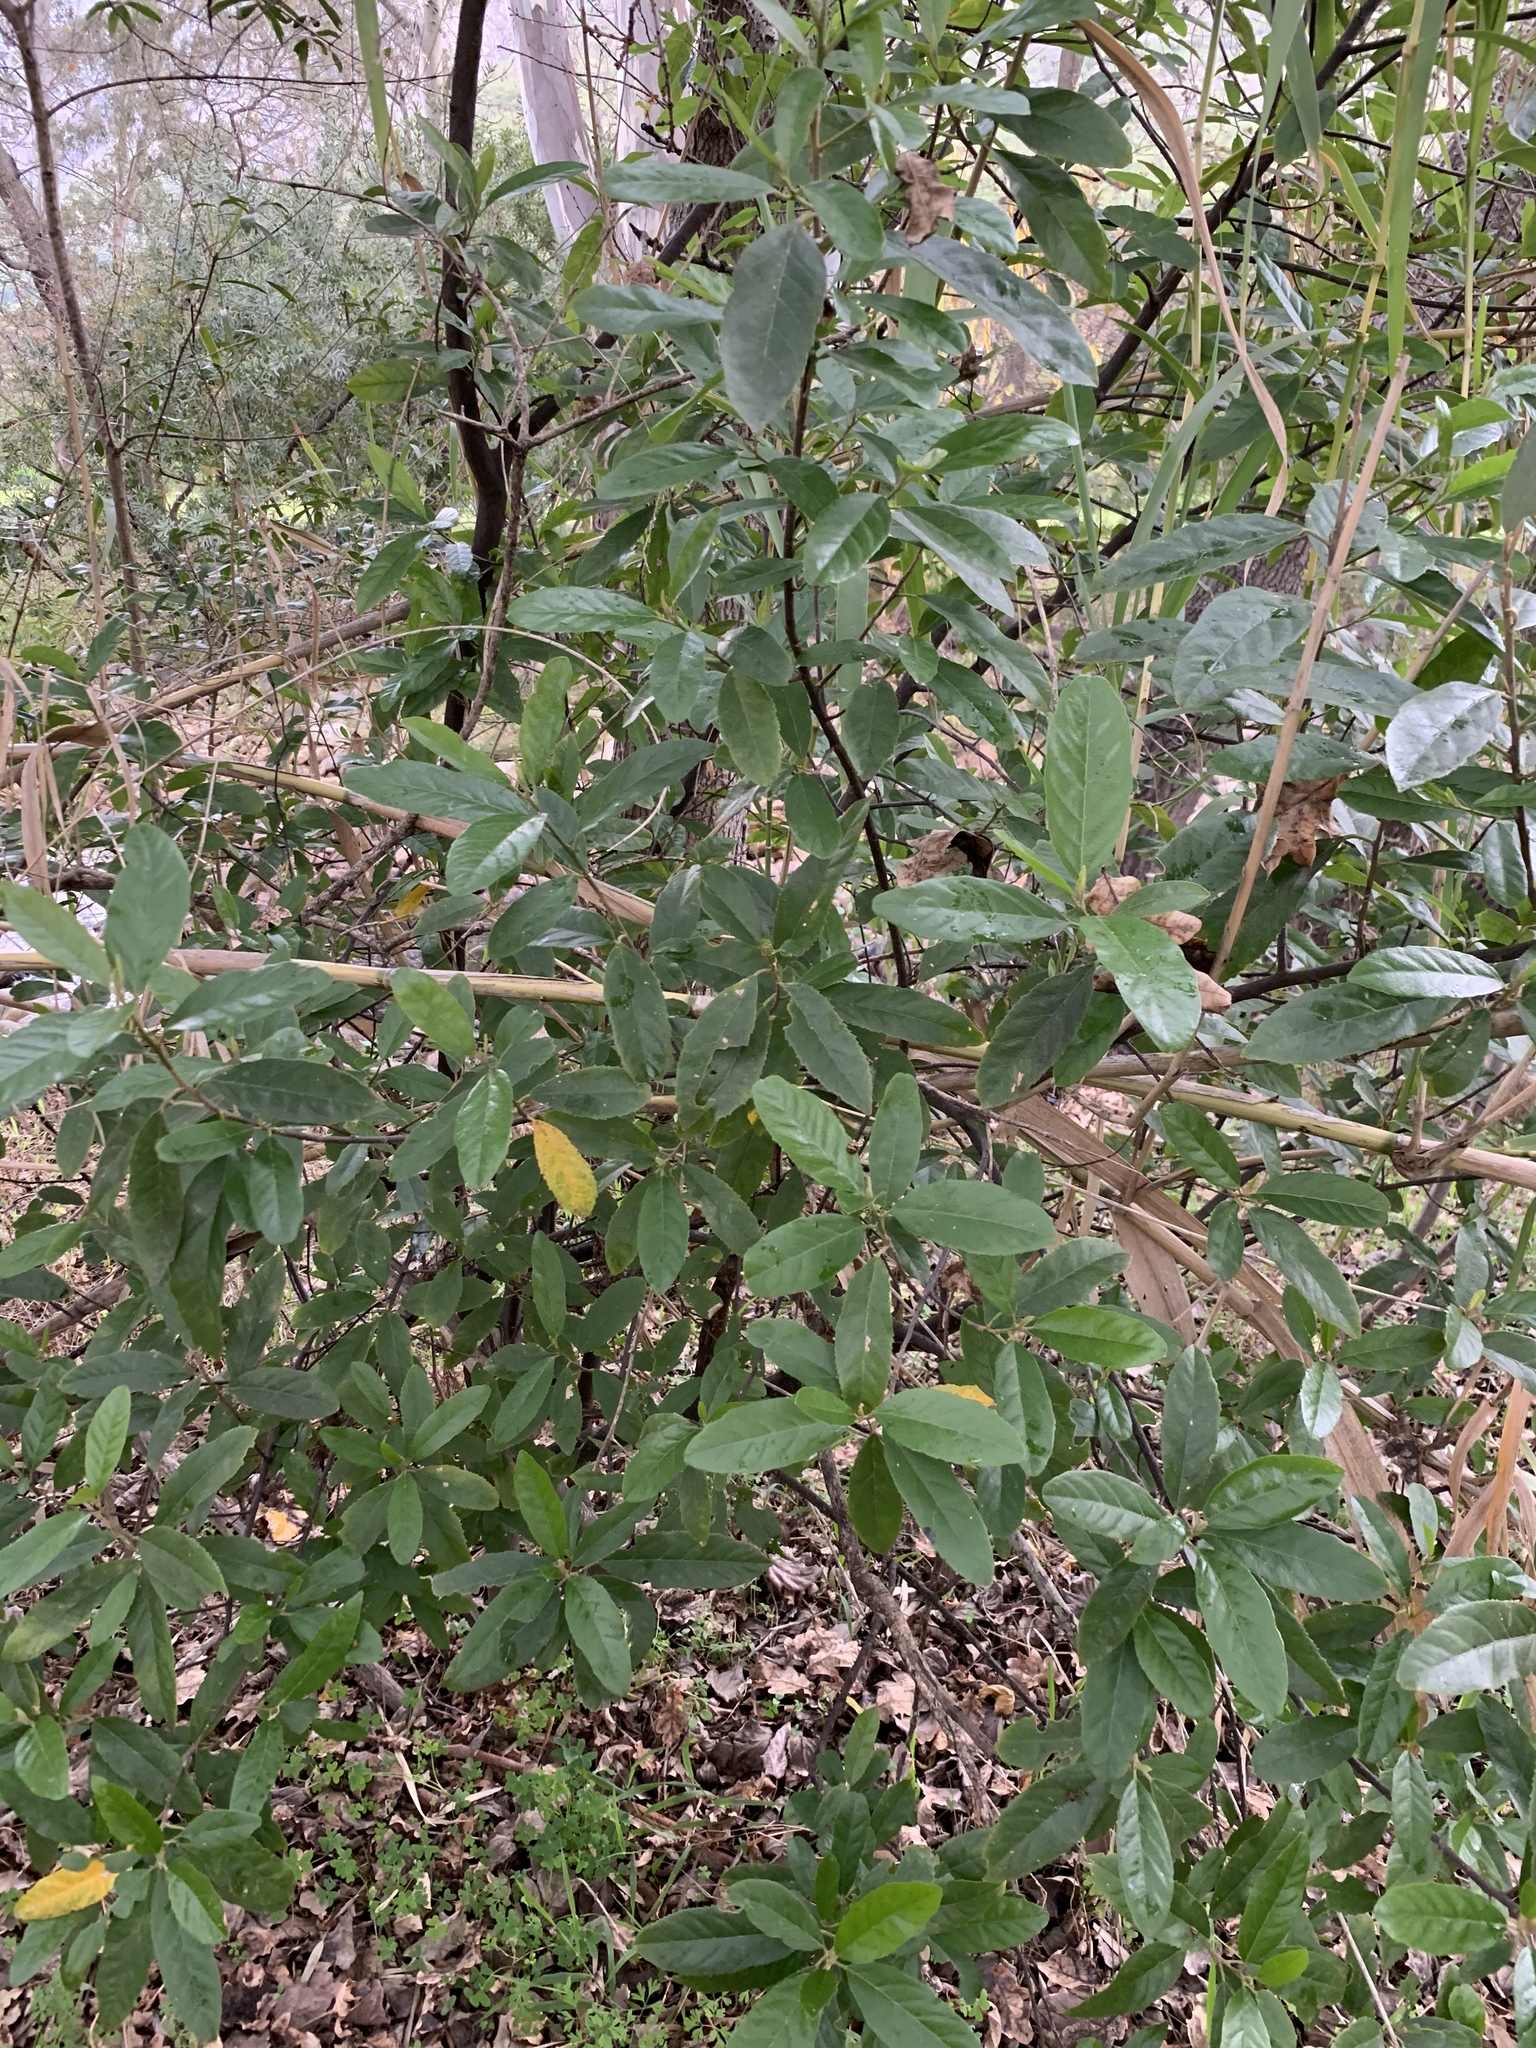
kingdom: Plantae
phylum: Tracheophyta
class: Magnoliopsida
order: Malpighiales
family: Achariaceae
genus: Kiggelaria
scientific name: Kiggelaria africana
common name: Wild peach
